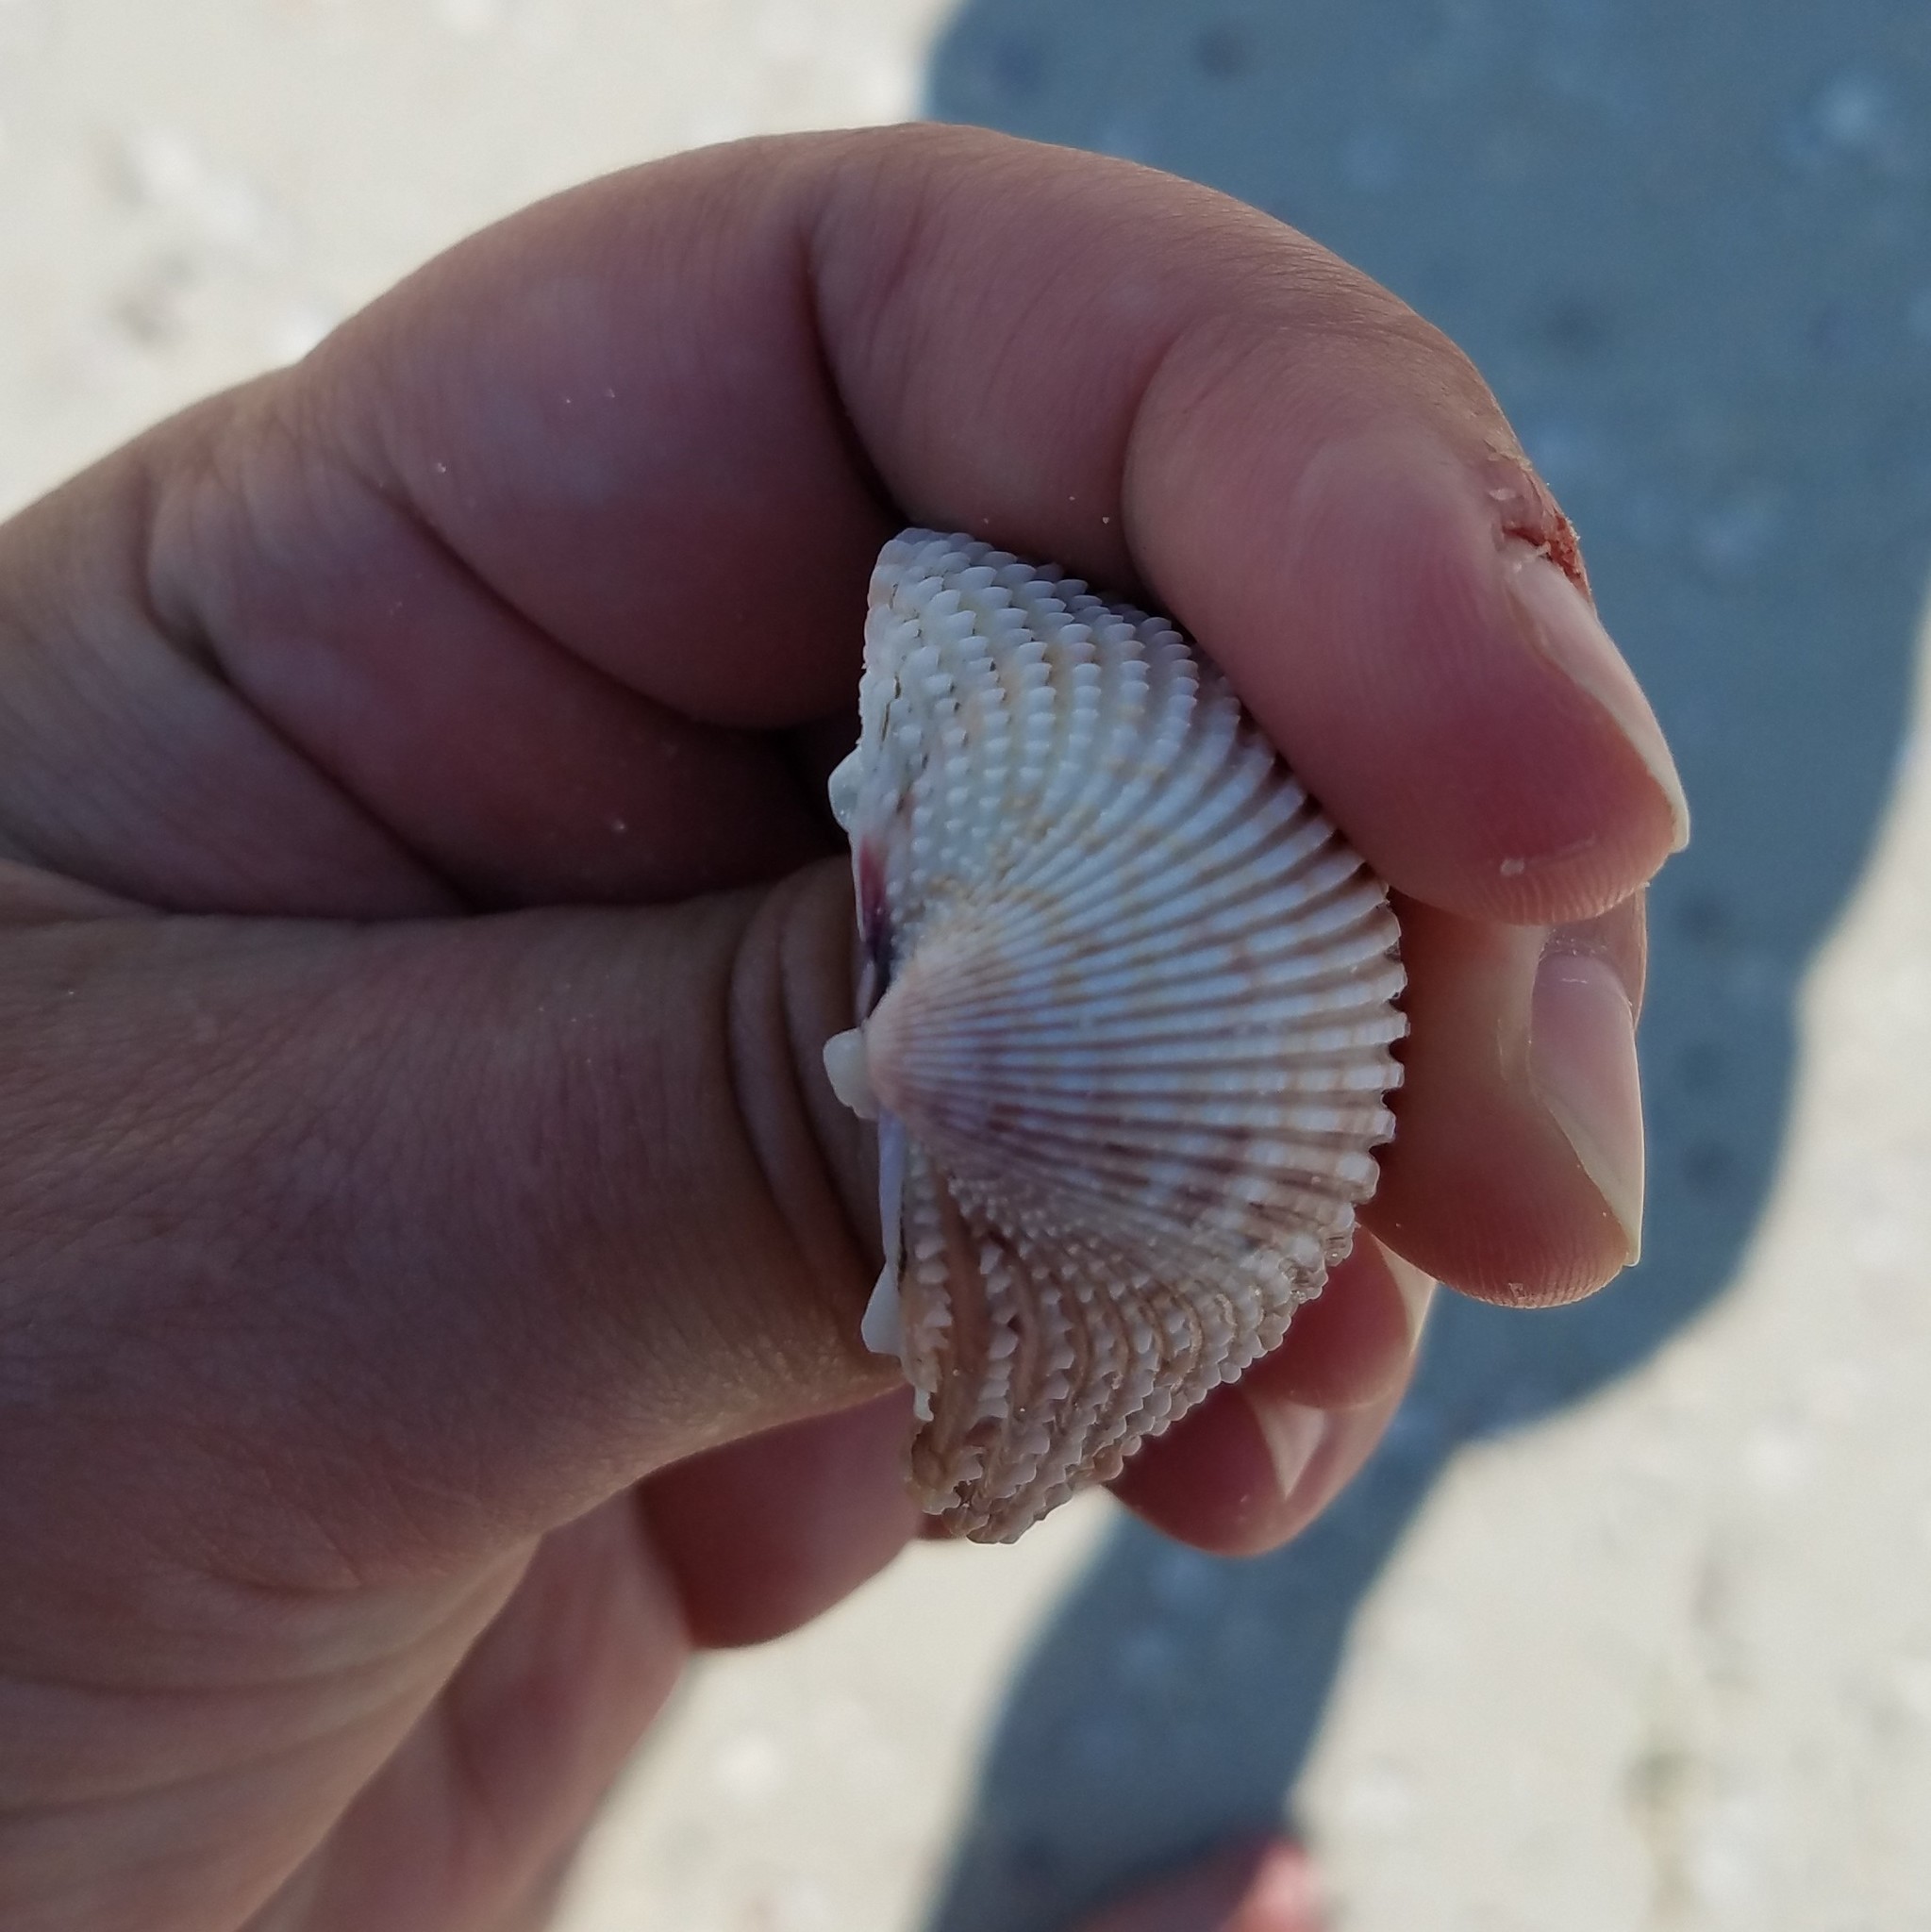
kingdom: Animalia
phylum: Mollusca
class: Bivalvia
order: Cardiida
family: Cardiidae
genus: Trachycardium
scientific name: Trachycardium egmontianum
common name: Florida pricklycockle
